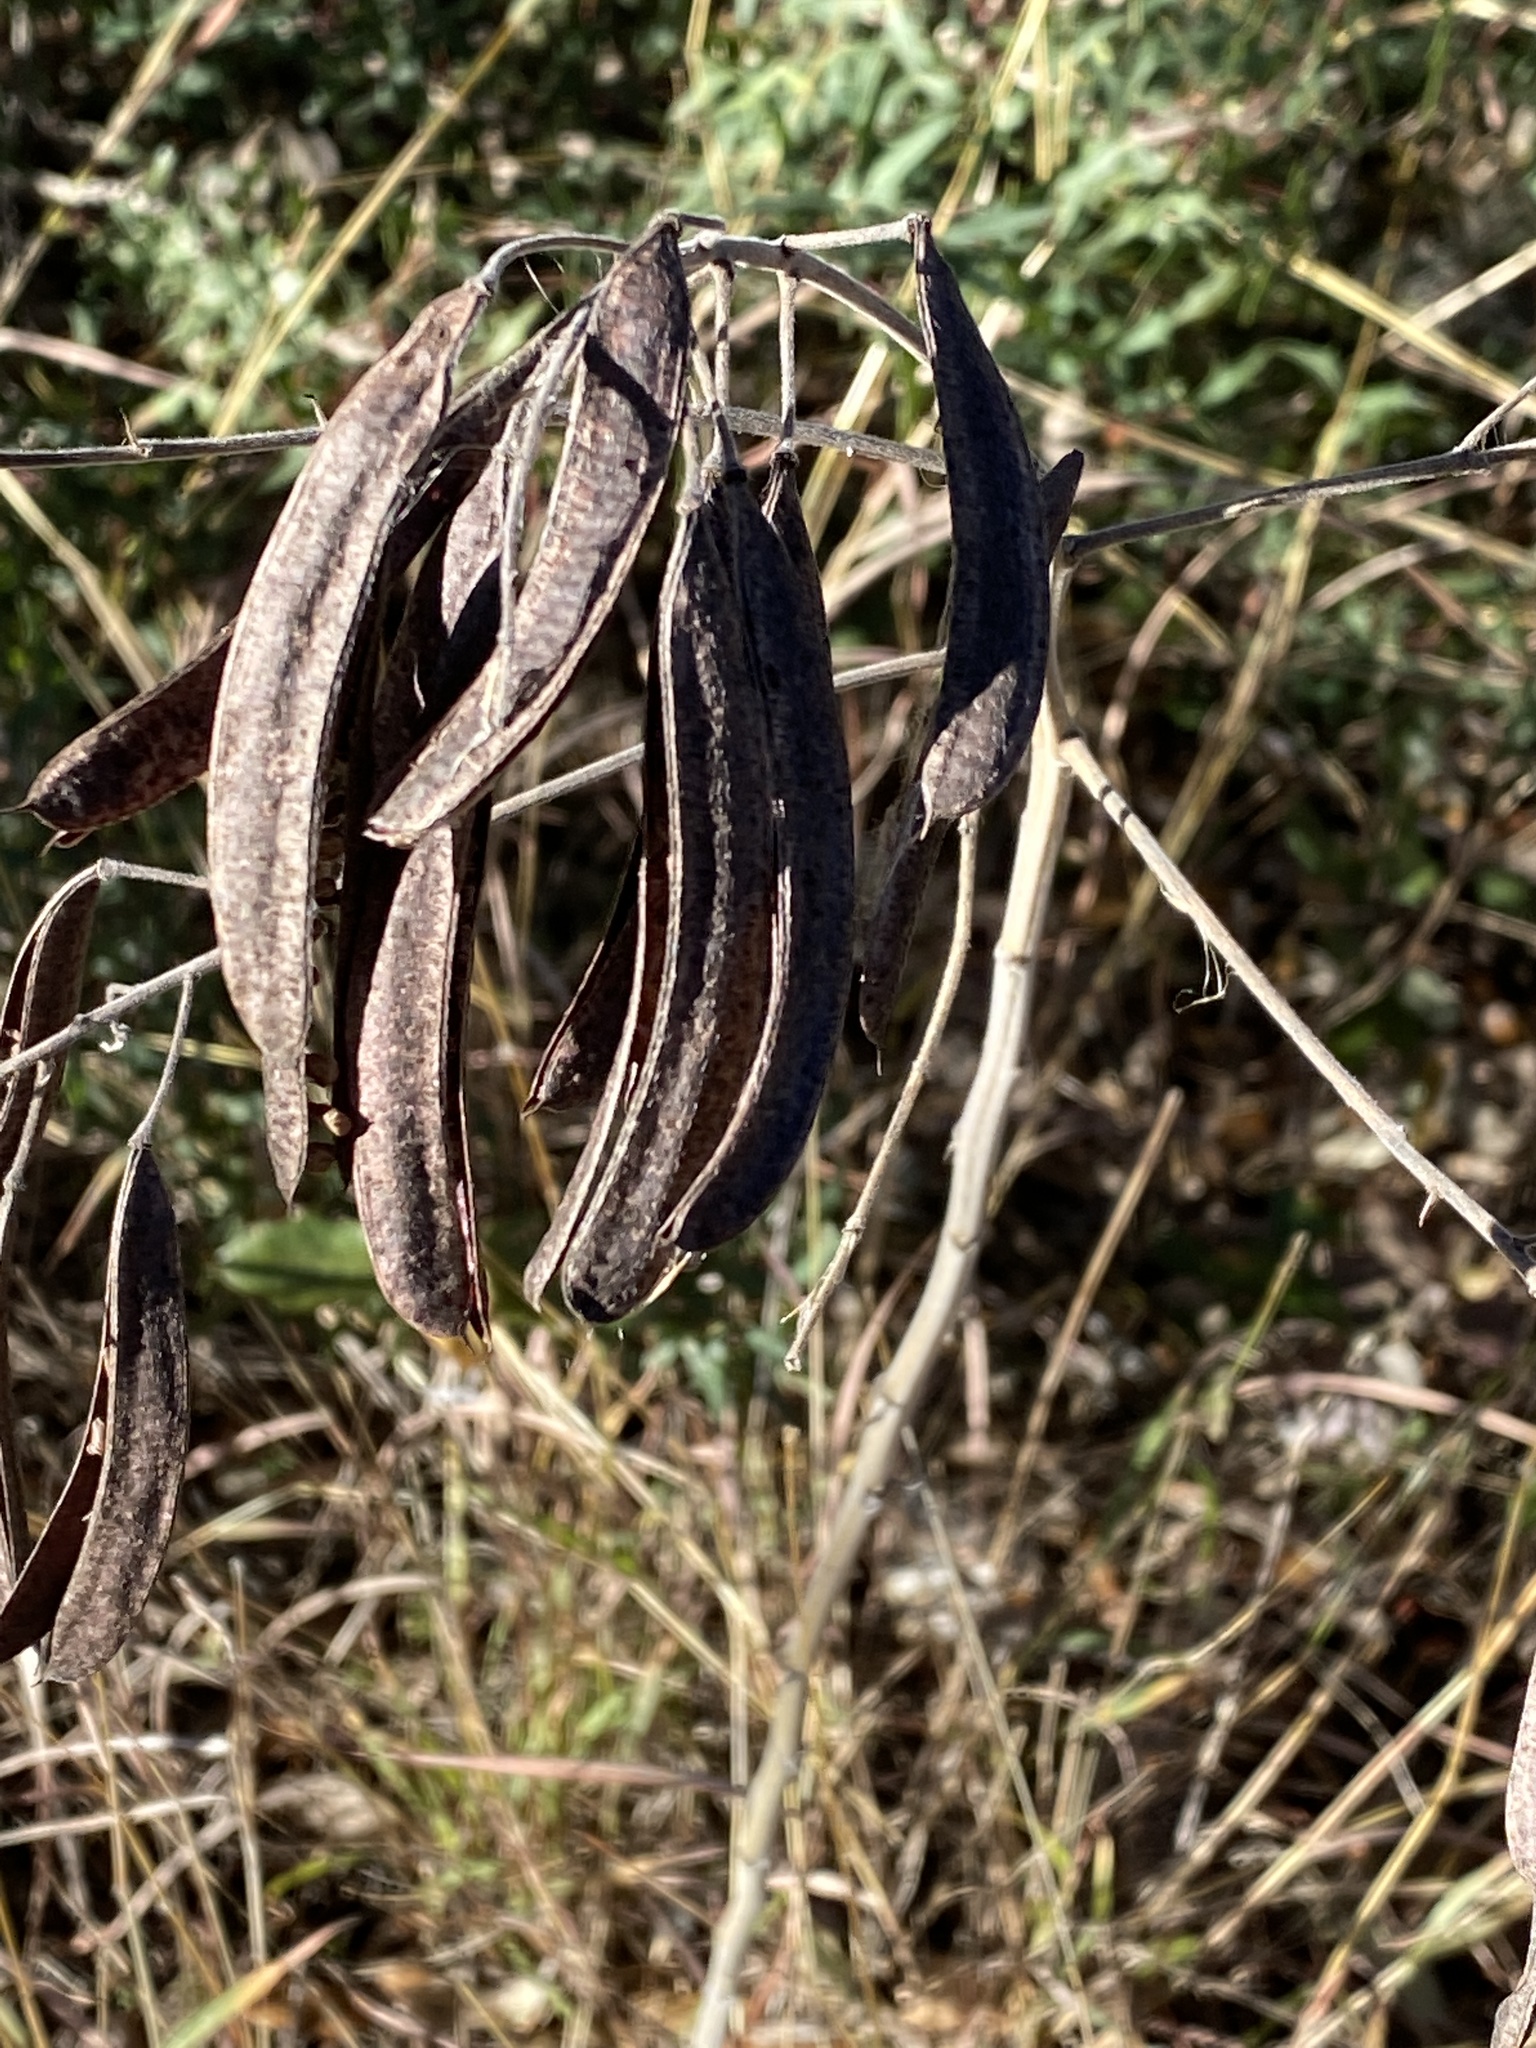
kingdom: Plantae
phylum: Tracheophyta
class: Magnoliopsida
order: Fabales
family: Fabaceae
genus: Senna
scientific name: Senna lindheimeriana
